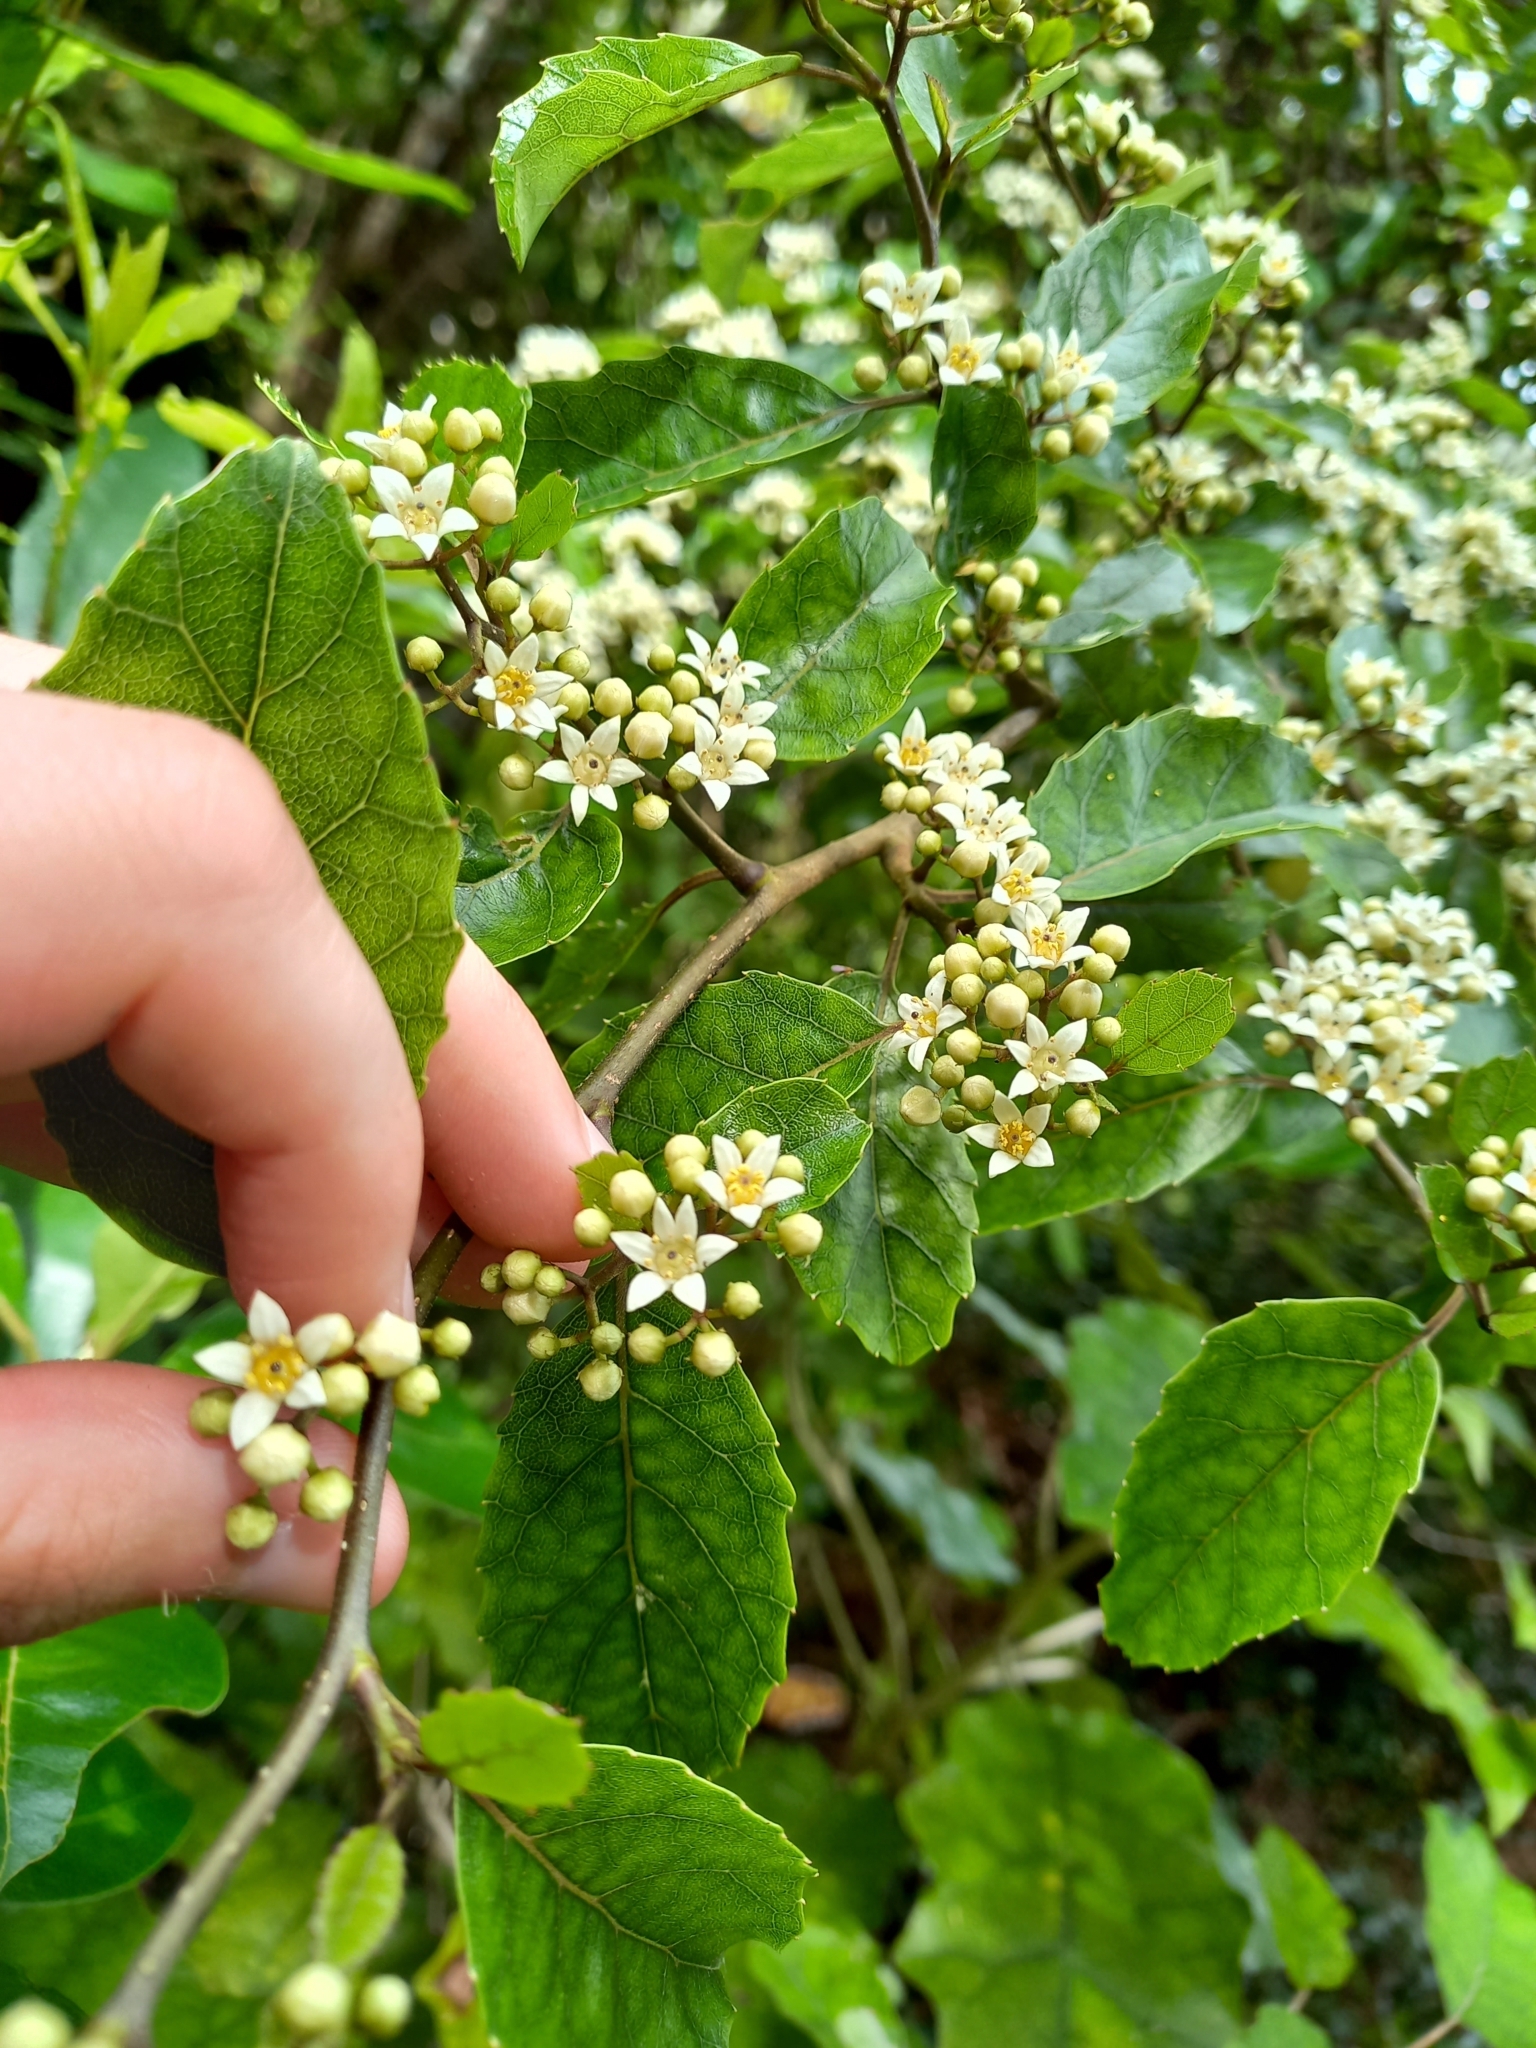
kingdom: Plantae
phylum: Tracheophyta
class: Magnoliopsida
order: Asterales
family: Rousseaceae
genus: Carpodetus
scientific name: Carpodetus serratus
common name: White mapau
